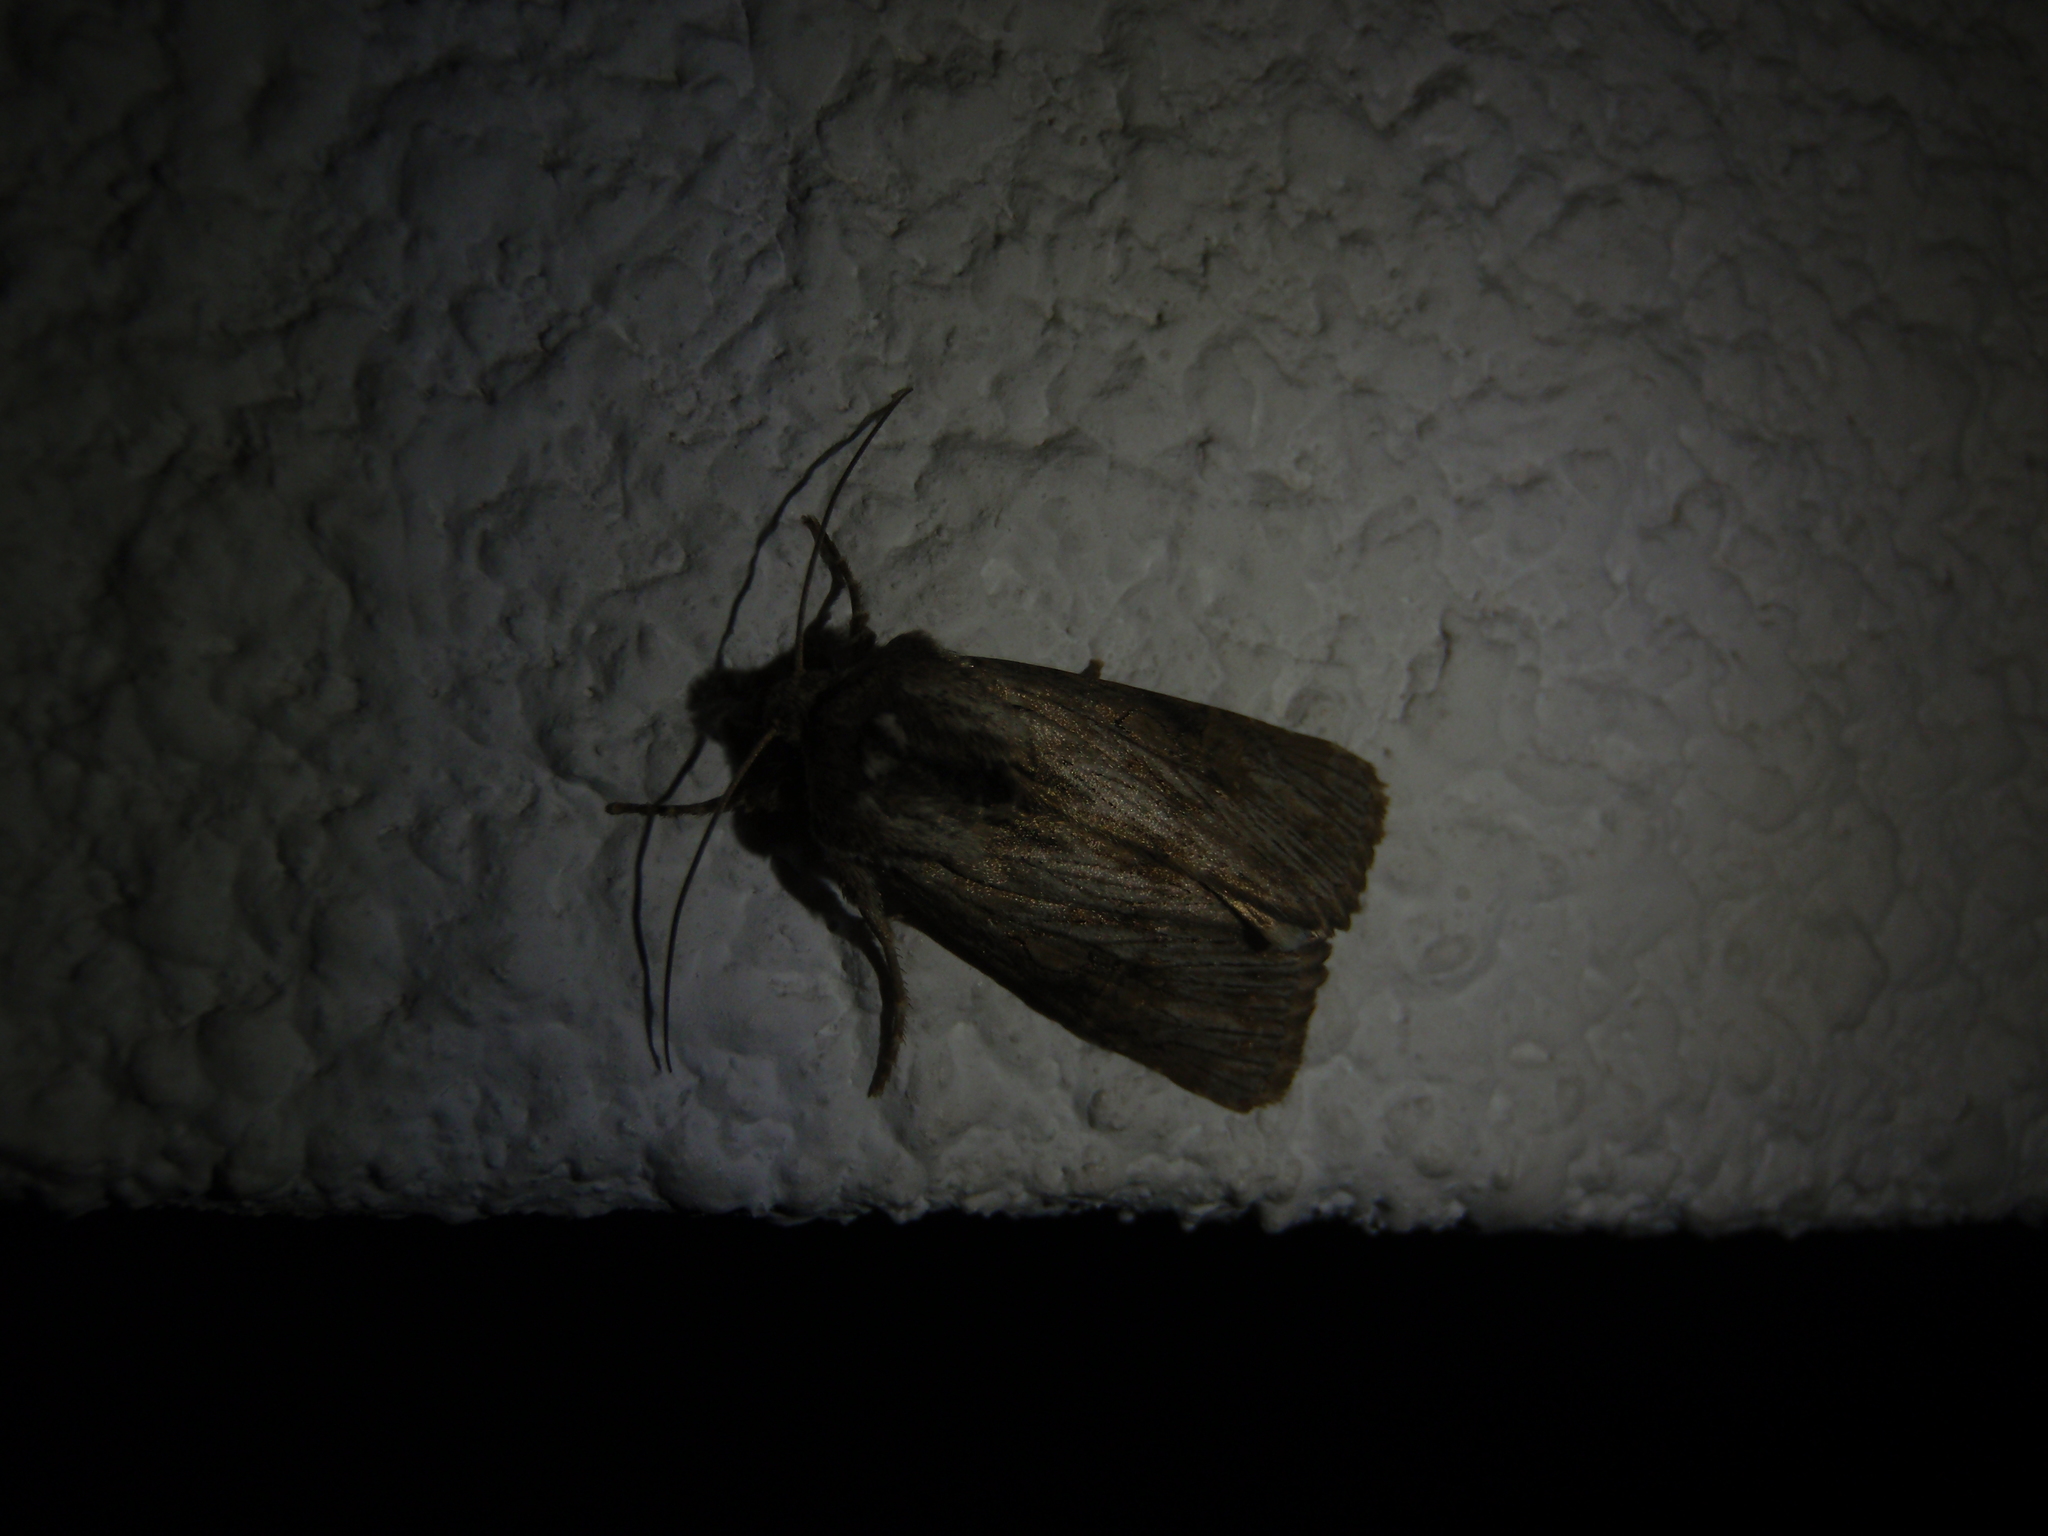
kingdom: Animalia
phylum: Arthropoda
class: Insecta
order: Lepidoptera
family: Noctuidae
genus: Aporophyla
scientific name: Aporophyla australis
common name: Feathered brindle
